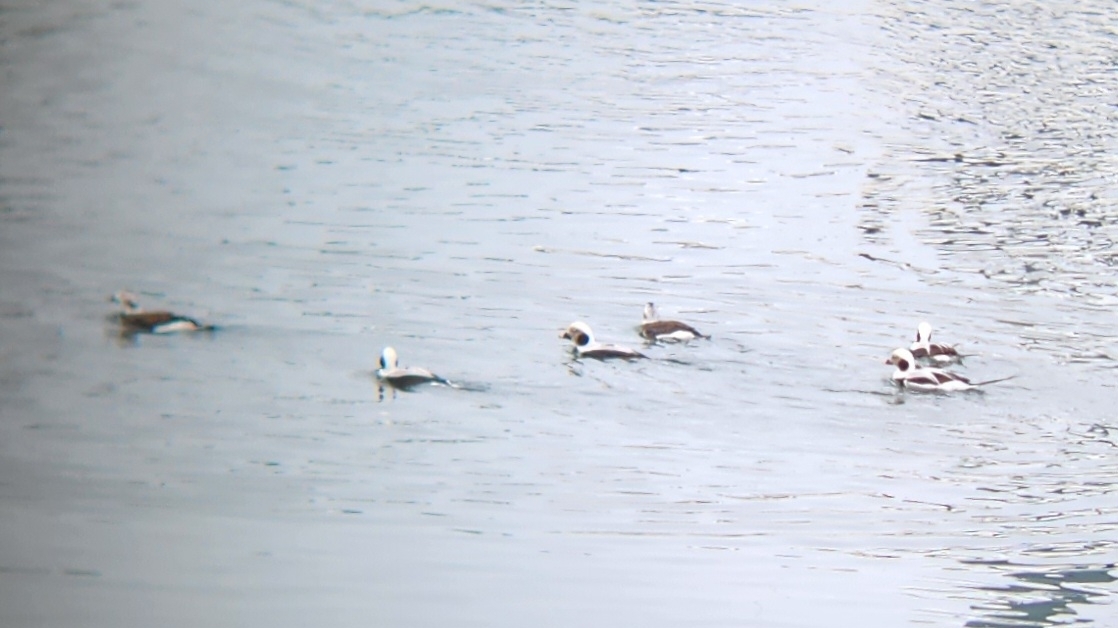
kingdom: Animalia
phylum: Chordata
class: Aves
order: Anseriformes
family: Anatidae
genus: Clangula
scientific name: Clangula hyemalis
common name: Long-tailed duck
